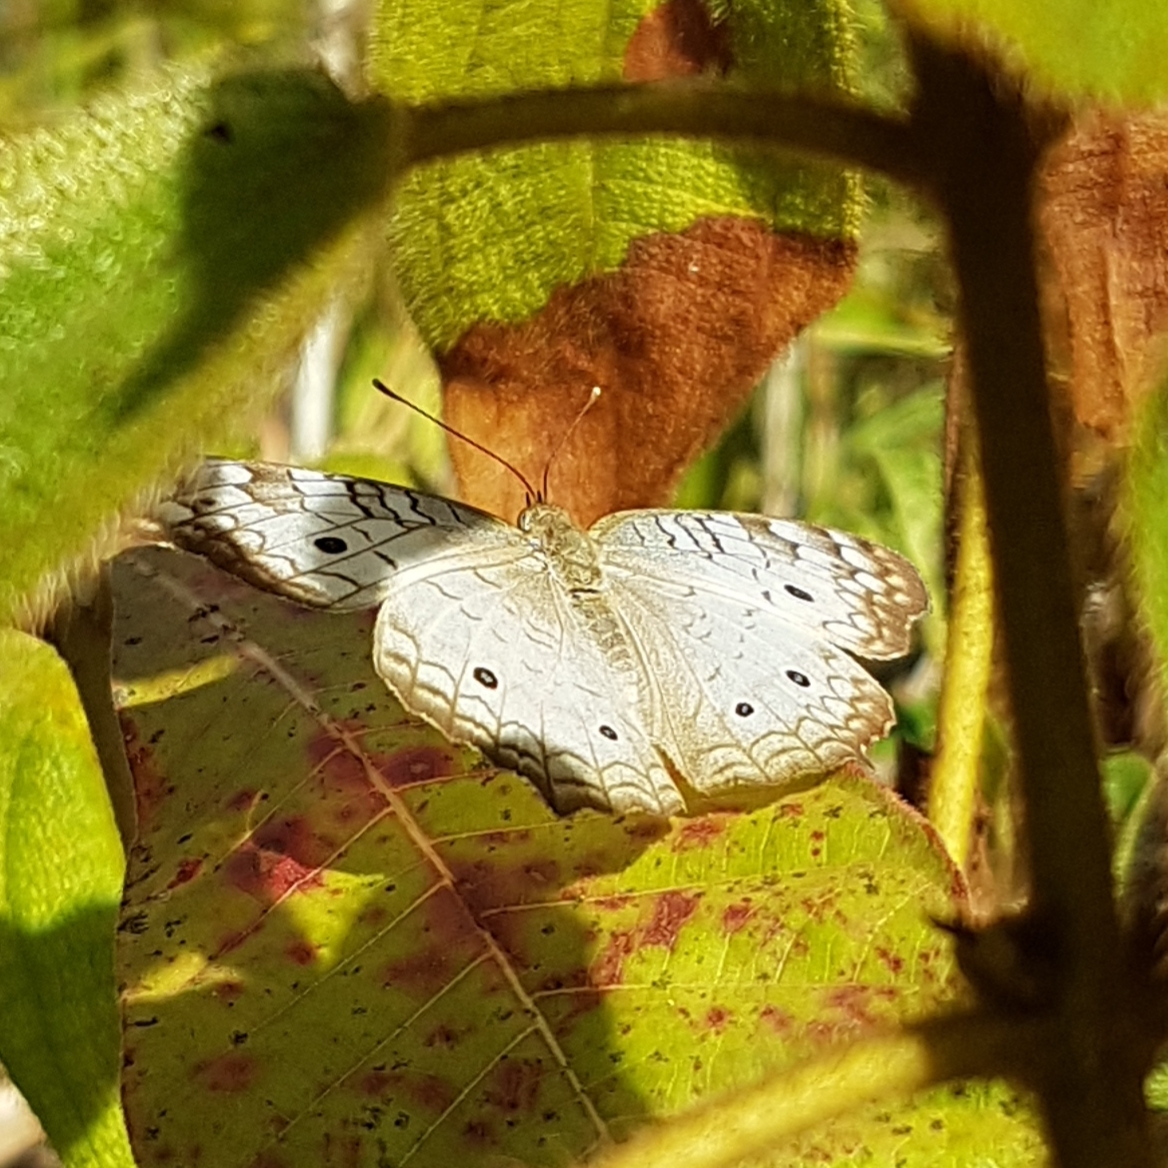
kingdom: Animalia
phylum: Arthropoda
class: Insecta
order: Lepidoptera
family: Nymphalidae
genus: Anartia
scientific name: Anartia jatrophae
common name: White peacock
